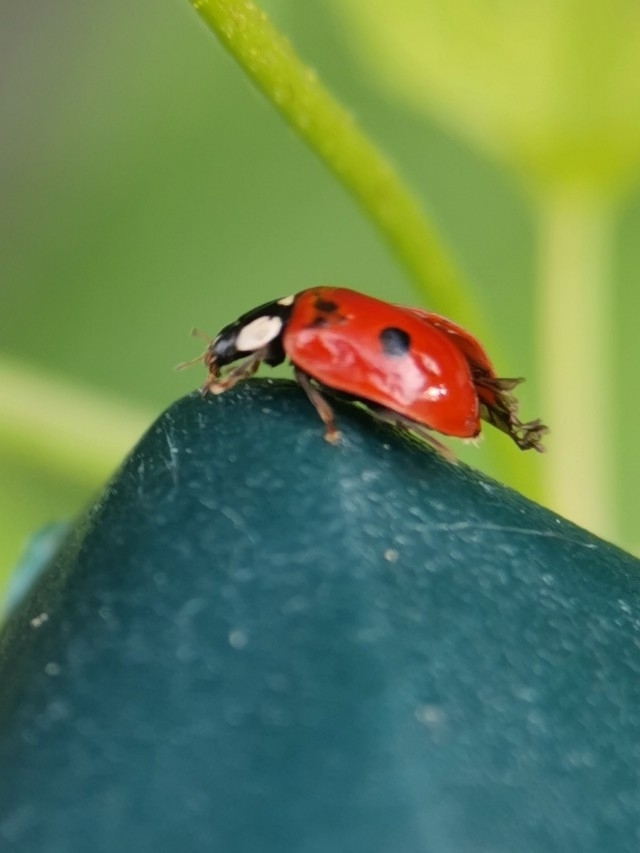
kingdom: Animalia
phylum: Arthropoda
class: Insecta
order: Coleoptera
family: Coccinellidae
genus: Adalia
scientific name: Adalia bipunctata
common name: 2-spot ladybird
